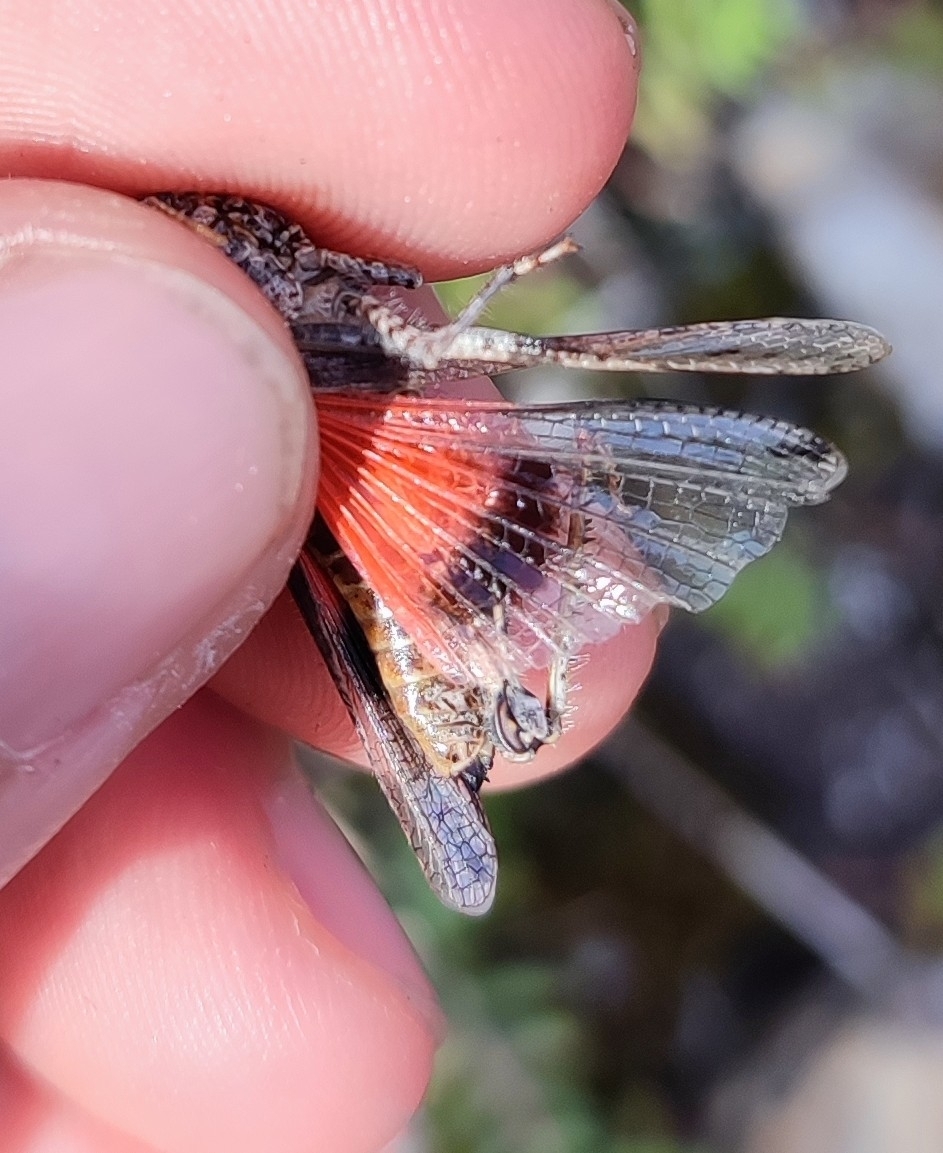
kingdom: Animalia
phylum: Arthropoda
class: Insecta
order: Orthoptera
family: Acrididae
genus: Acrotylus
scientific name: Acrotylus insubricus
